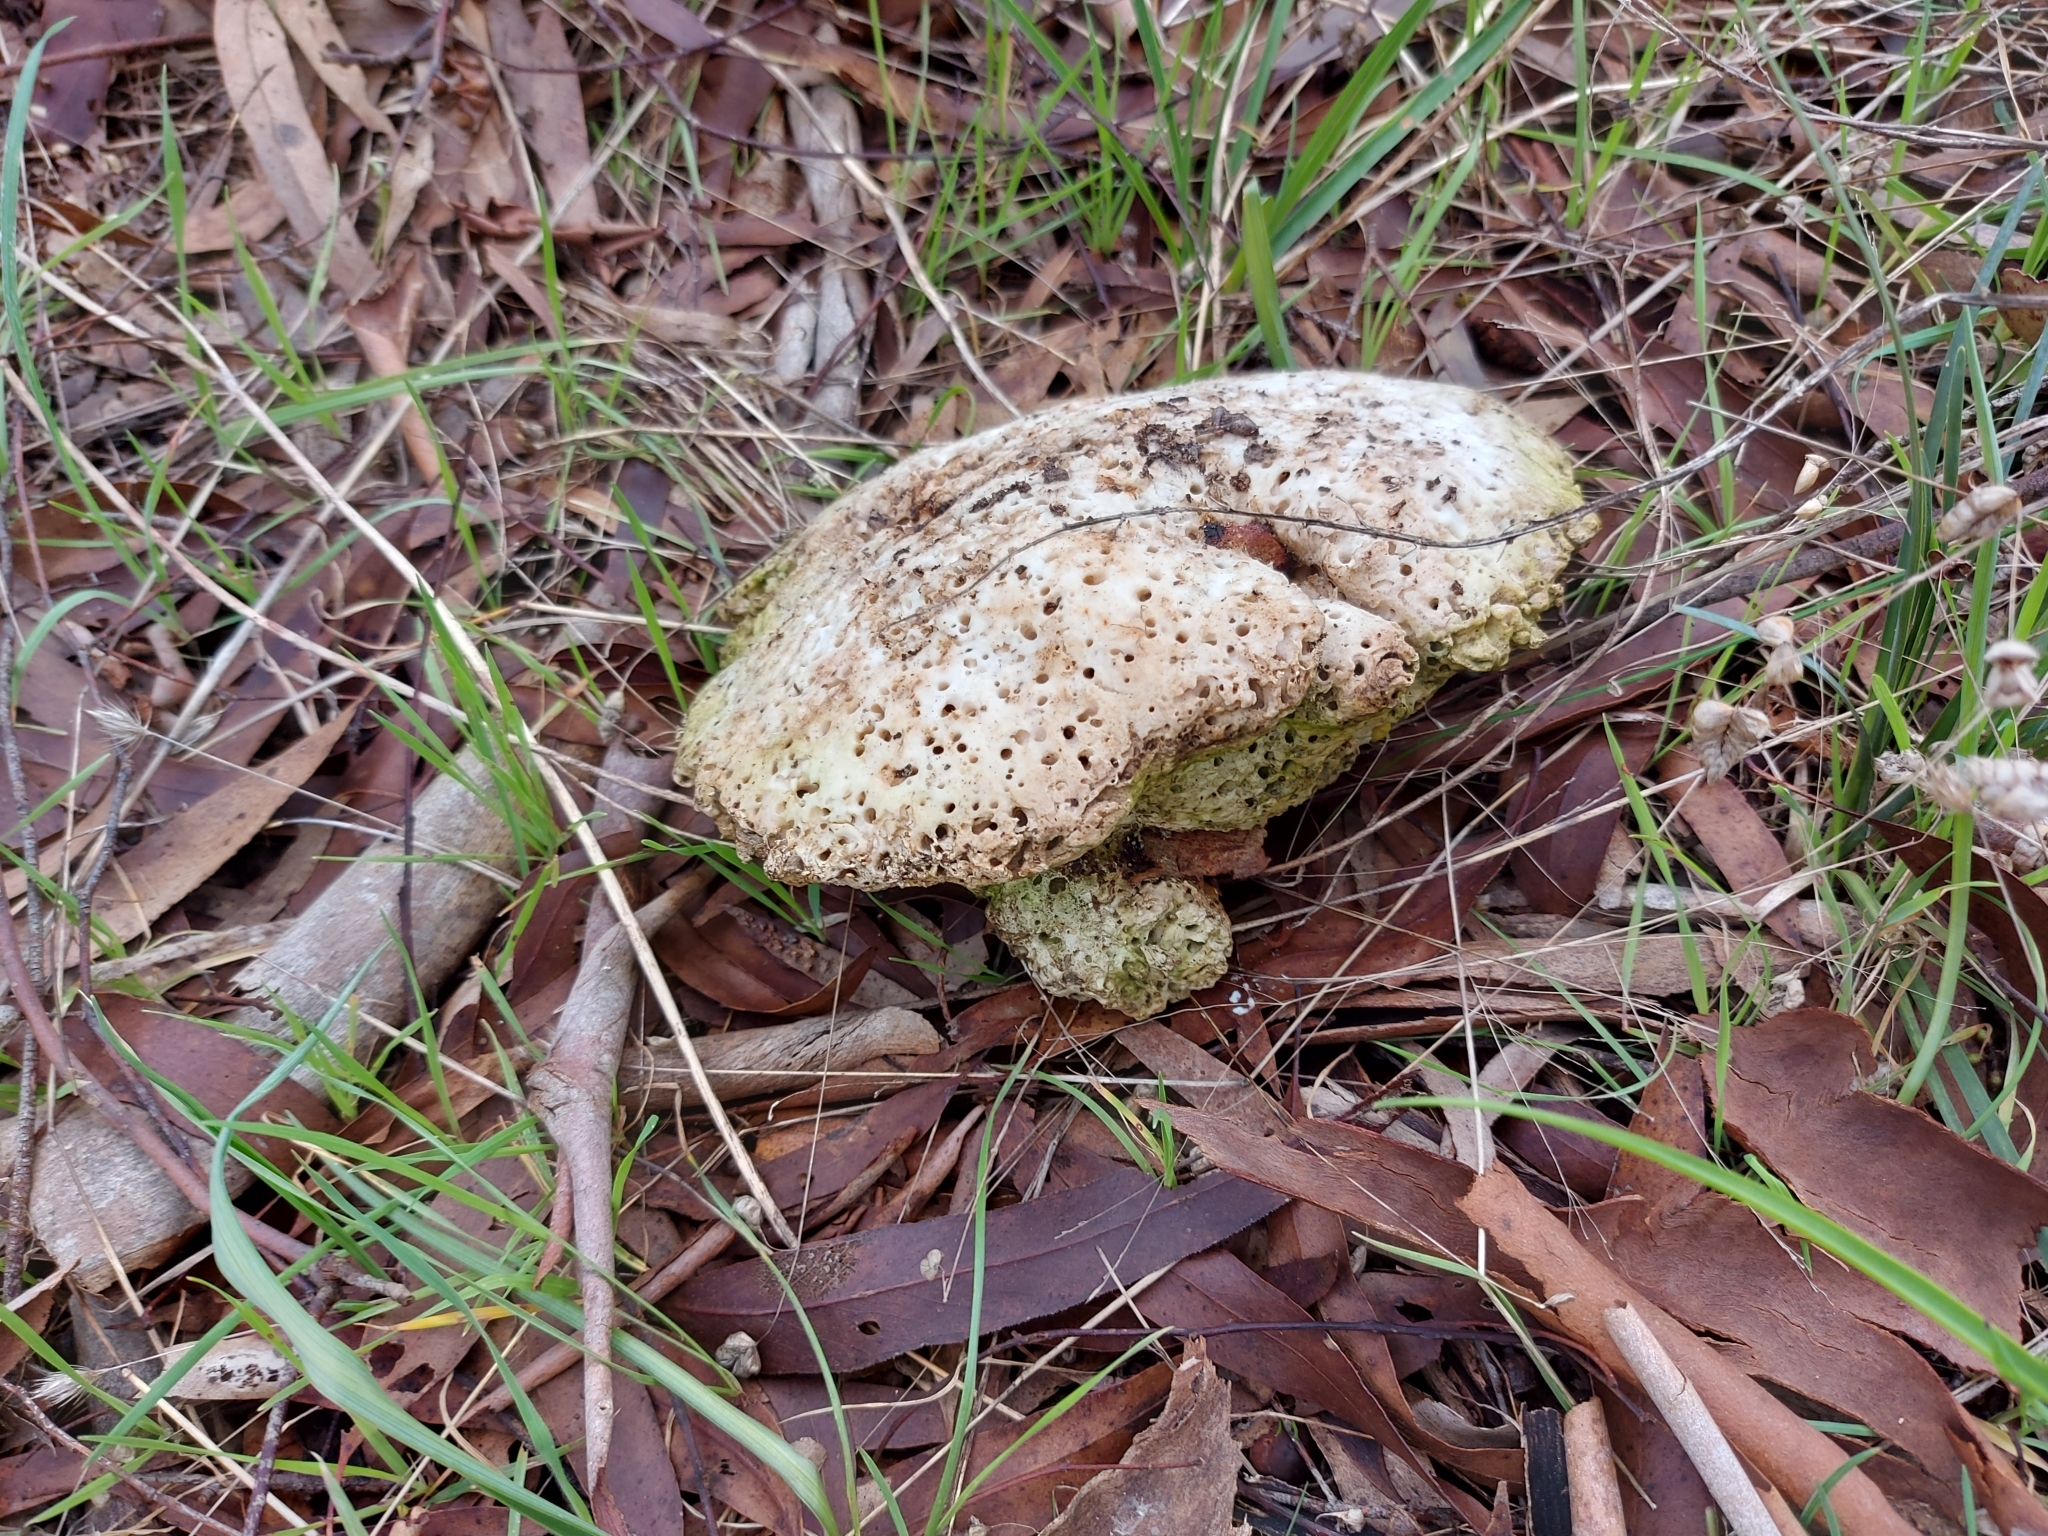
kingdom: Fungi
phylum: Basidiomycota
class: Agaricomycetes
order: Polyporales
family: Laetiporaceae
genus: Laetiporus
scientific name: Laetiporus portentosus
